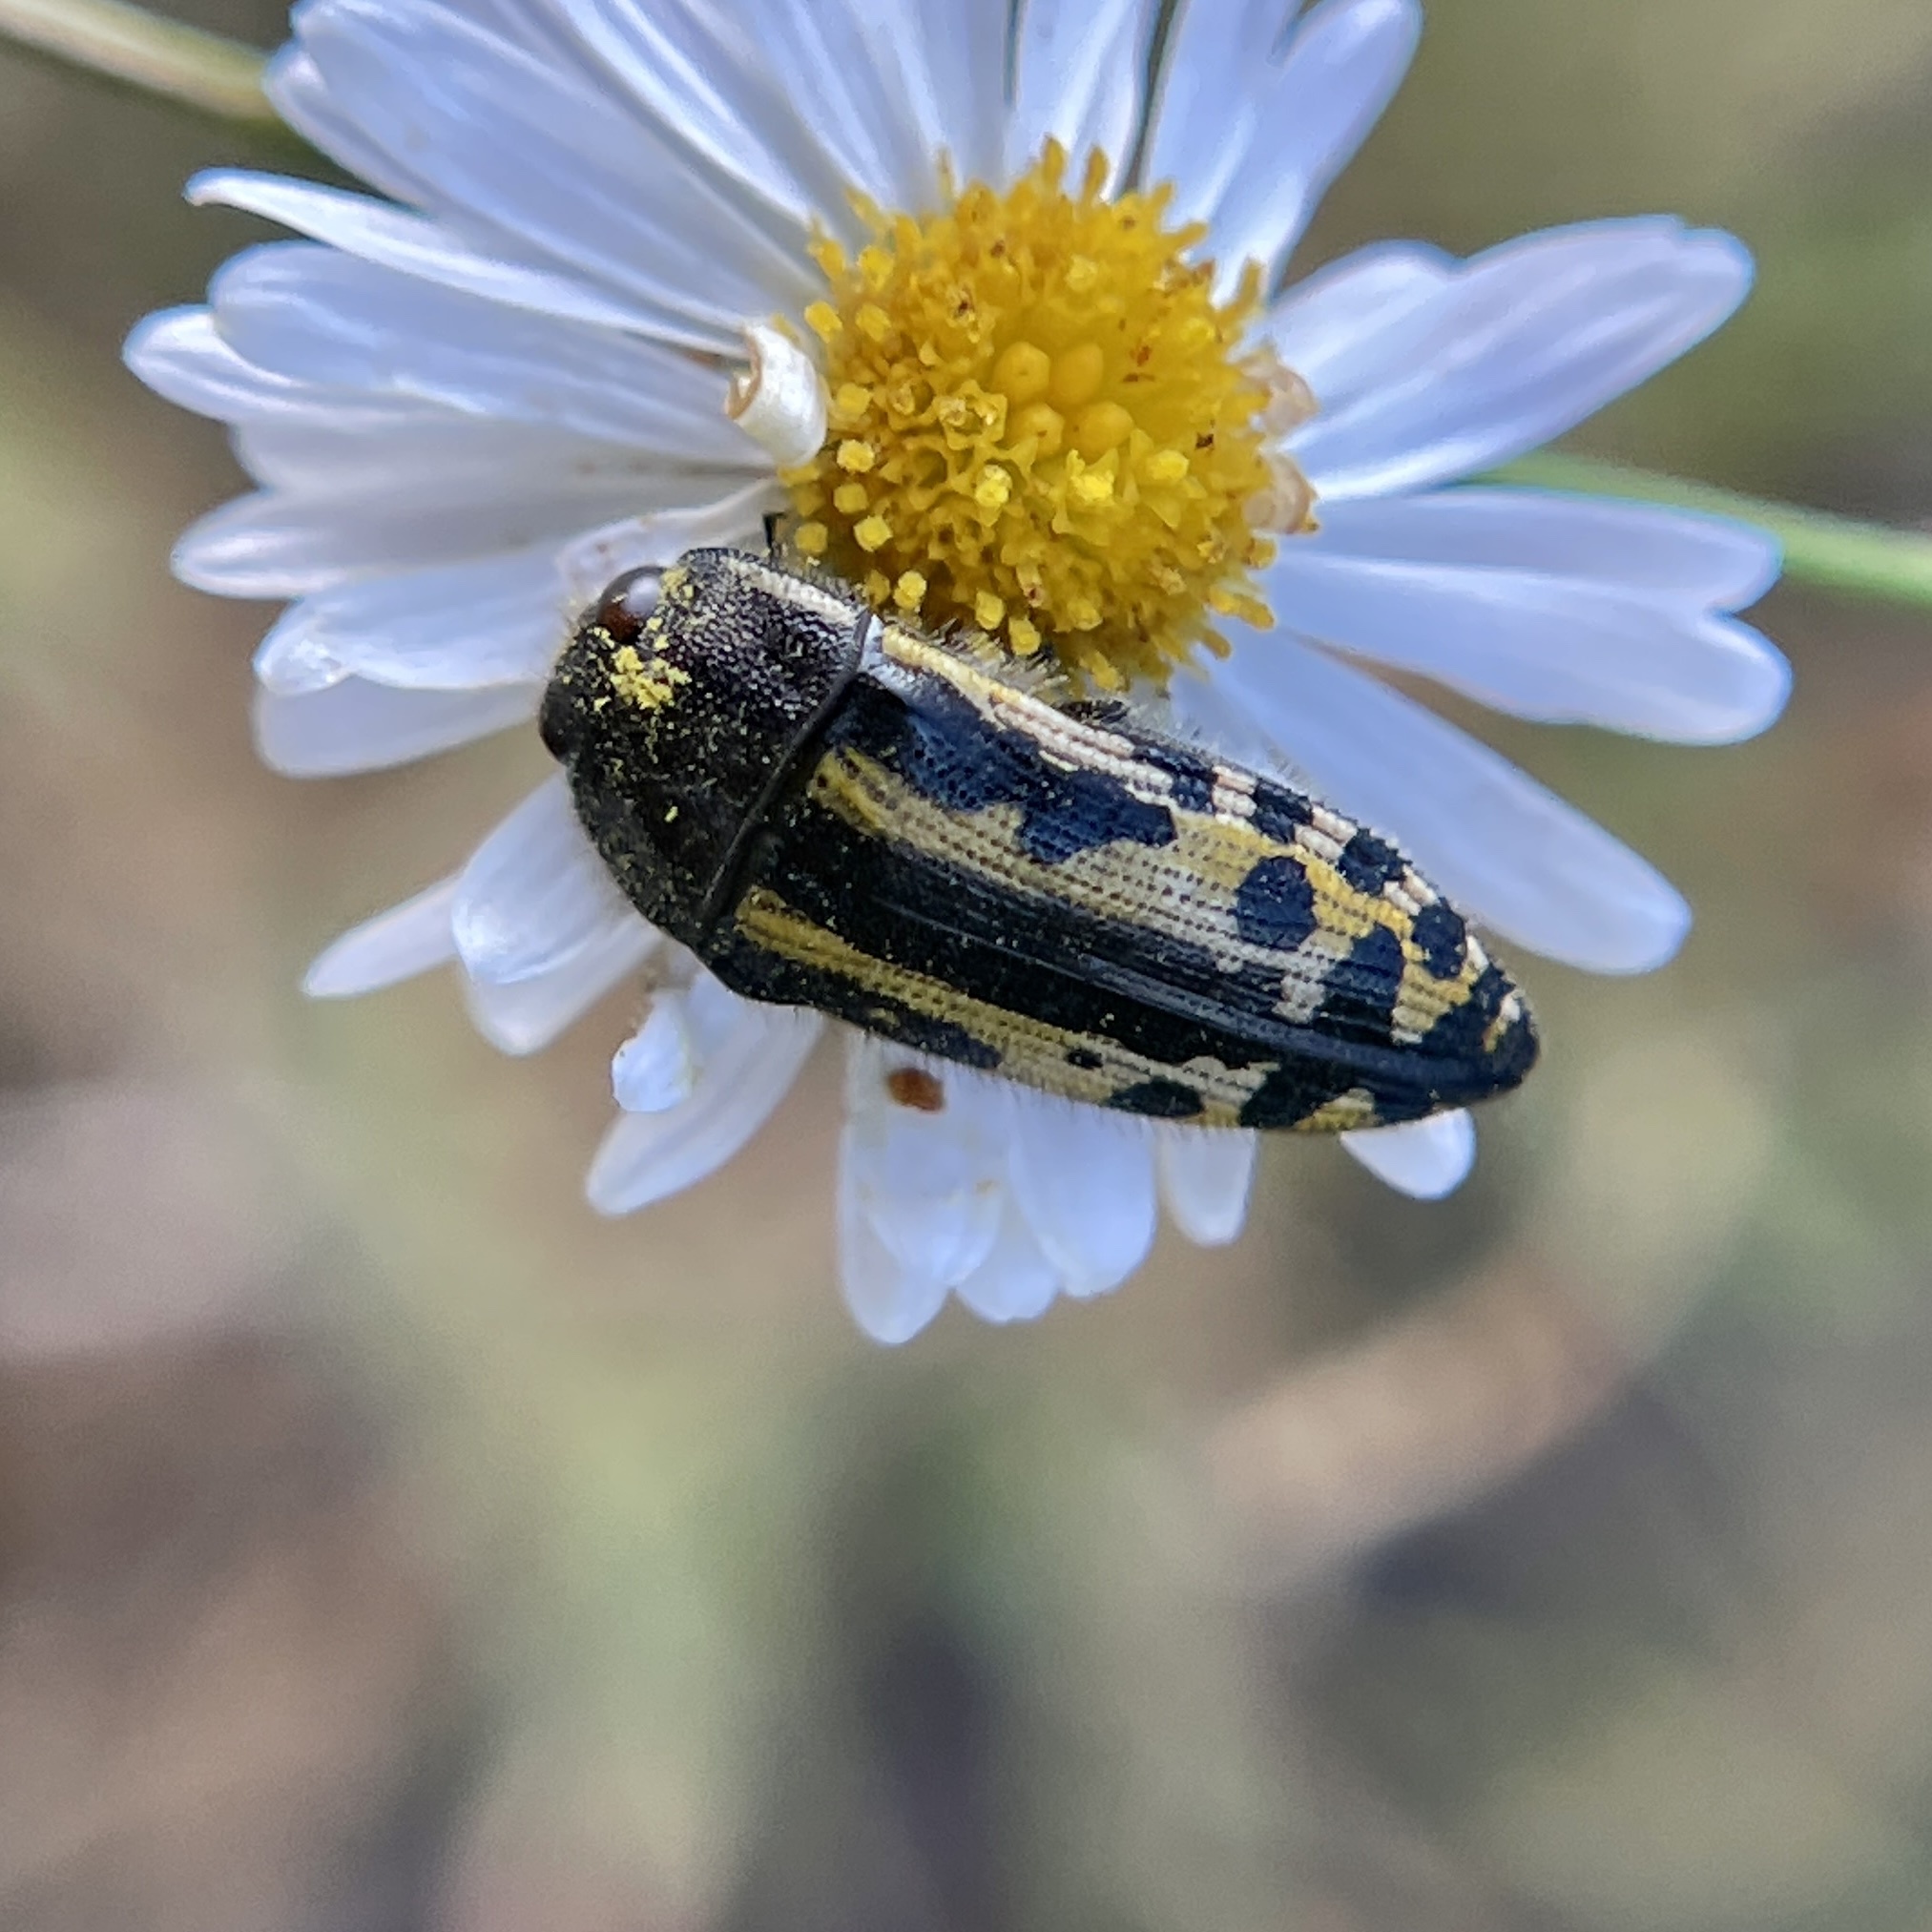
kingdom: Animalia
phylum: Arthropoda
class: Insecta
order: Coleoptera
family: Buprestidae
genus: Acmaeodera
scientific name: Acmaeodera scalaris
